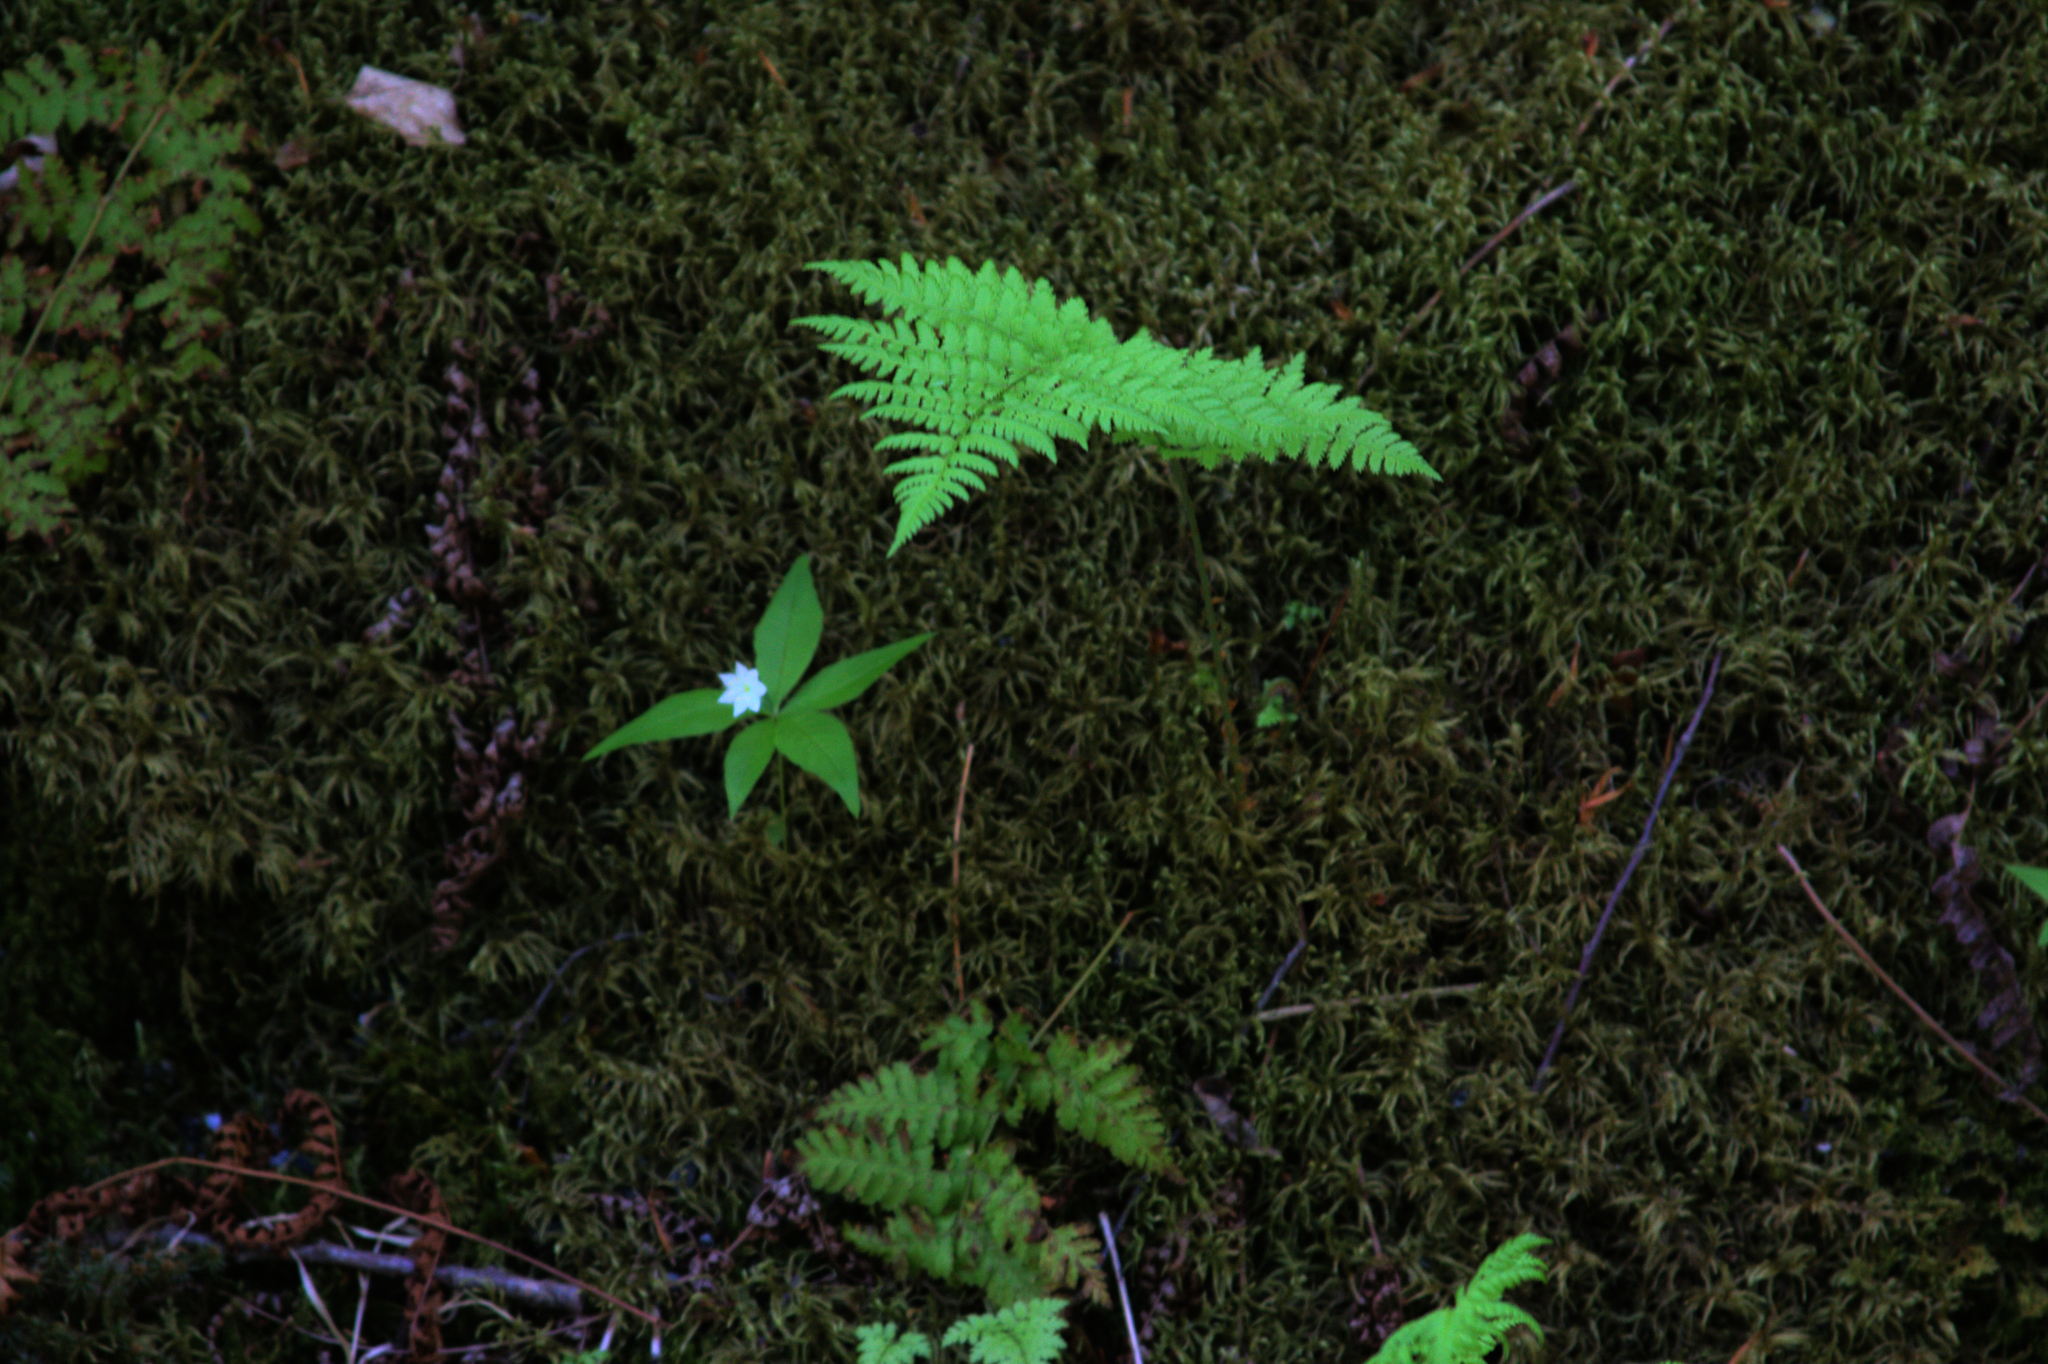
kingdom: Plantae
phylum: Tracheophyta
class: Magnoliopsida
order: Ericales
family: Primulaceae
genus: Lysimachia
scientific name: Lysimachia borealis
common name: American starflower
